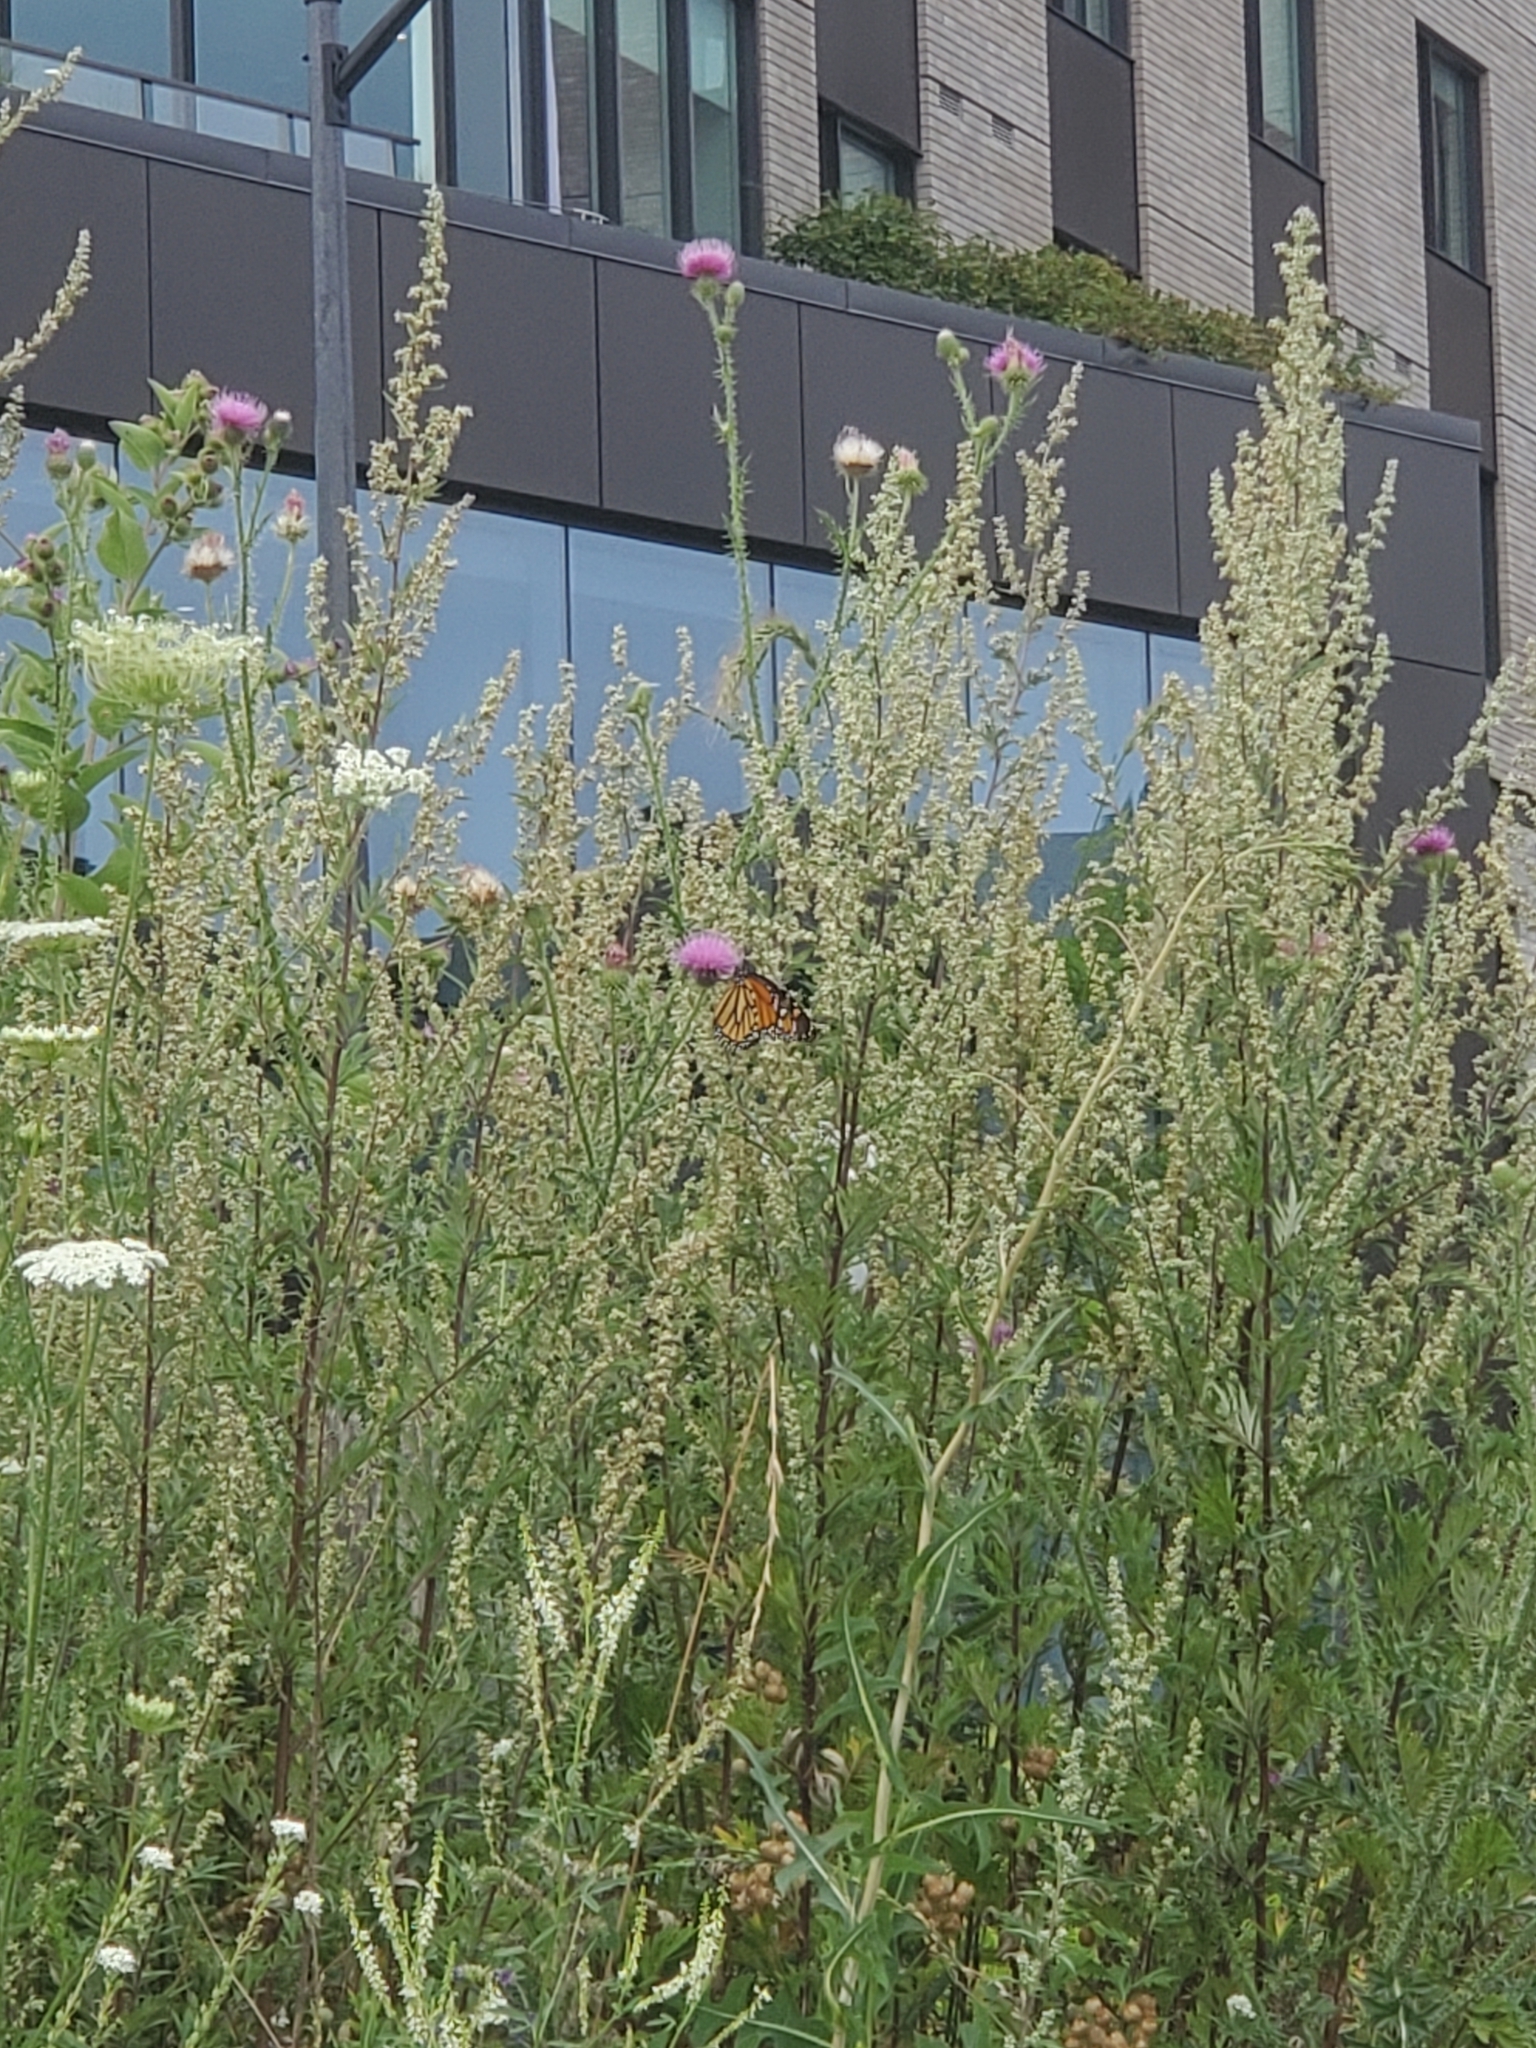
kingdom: Animalia
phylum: Arthropoda
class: Insecta
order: Lepidoptera
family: Nymphalidae
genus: Danaus
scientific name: Danaus plexippus
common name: Monarch
